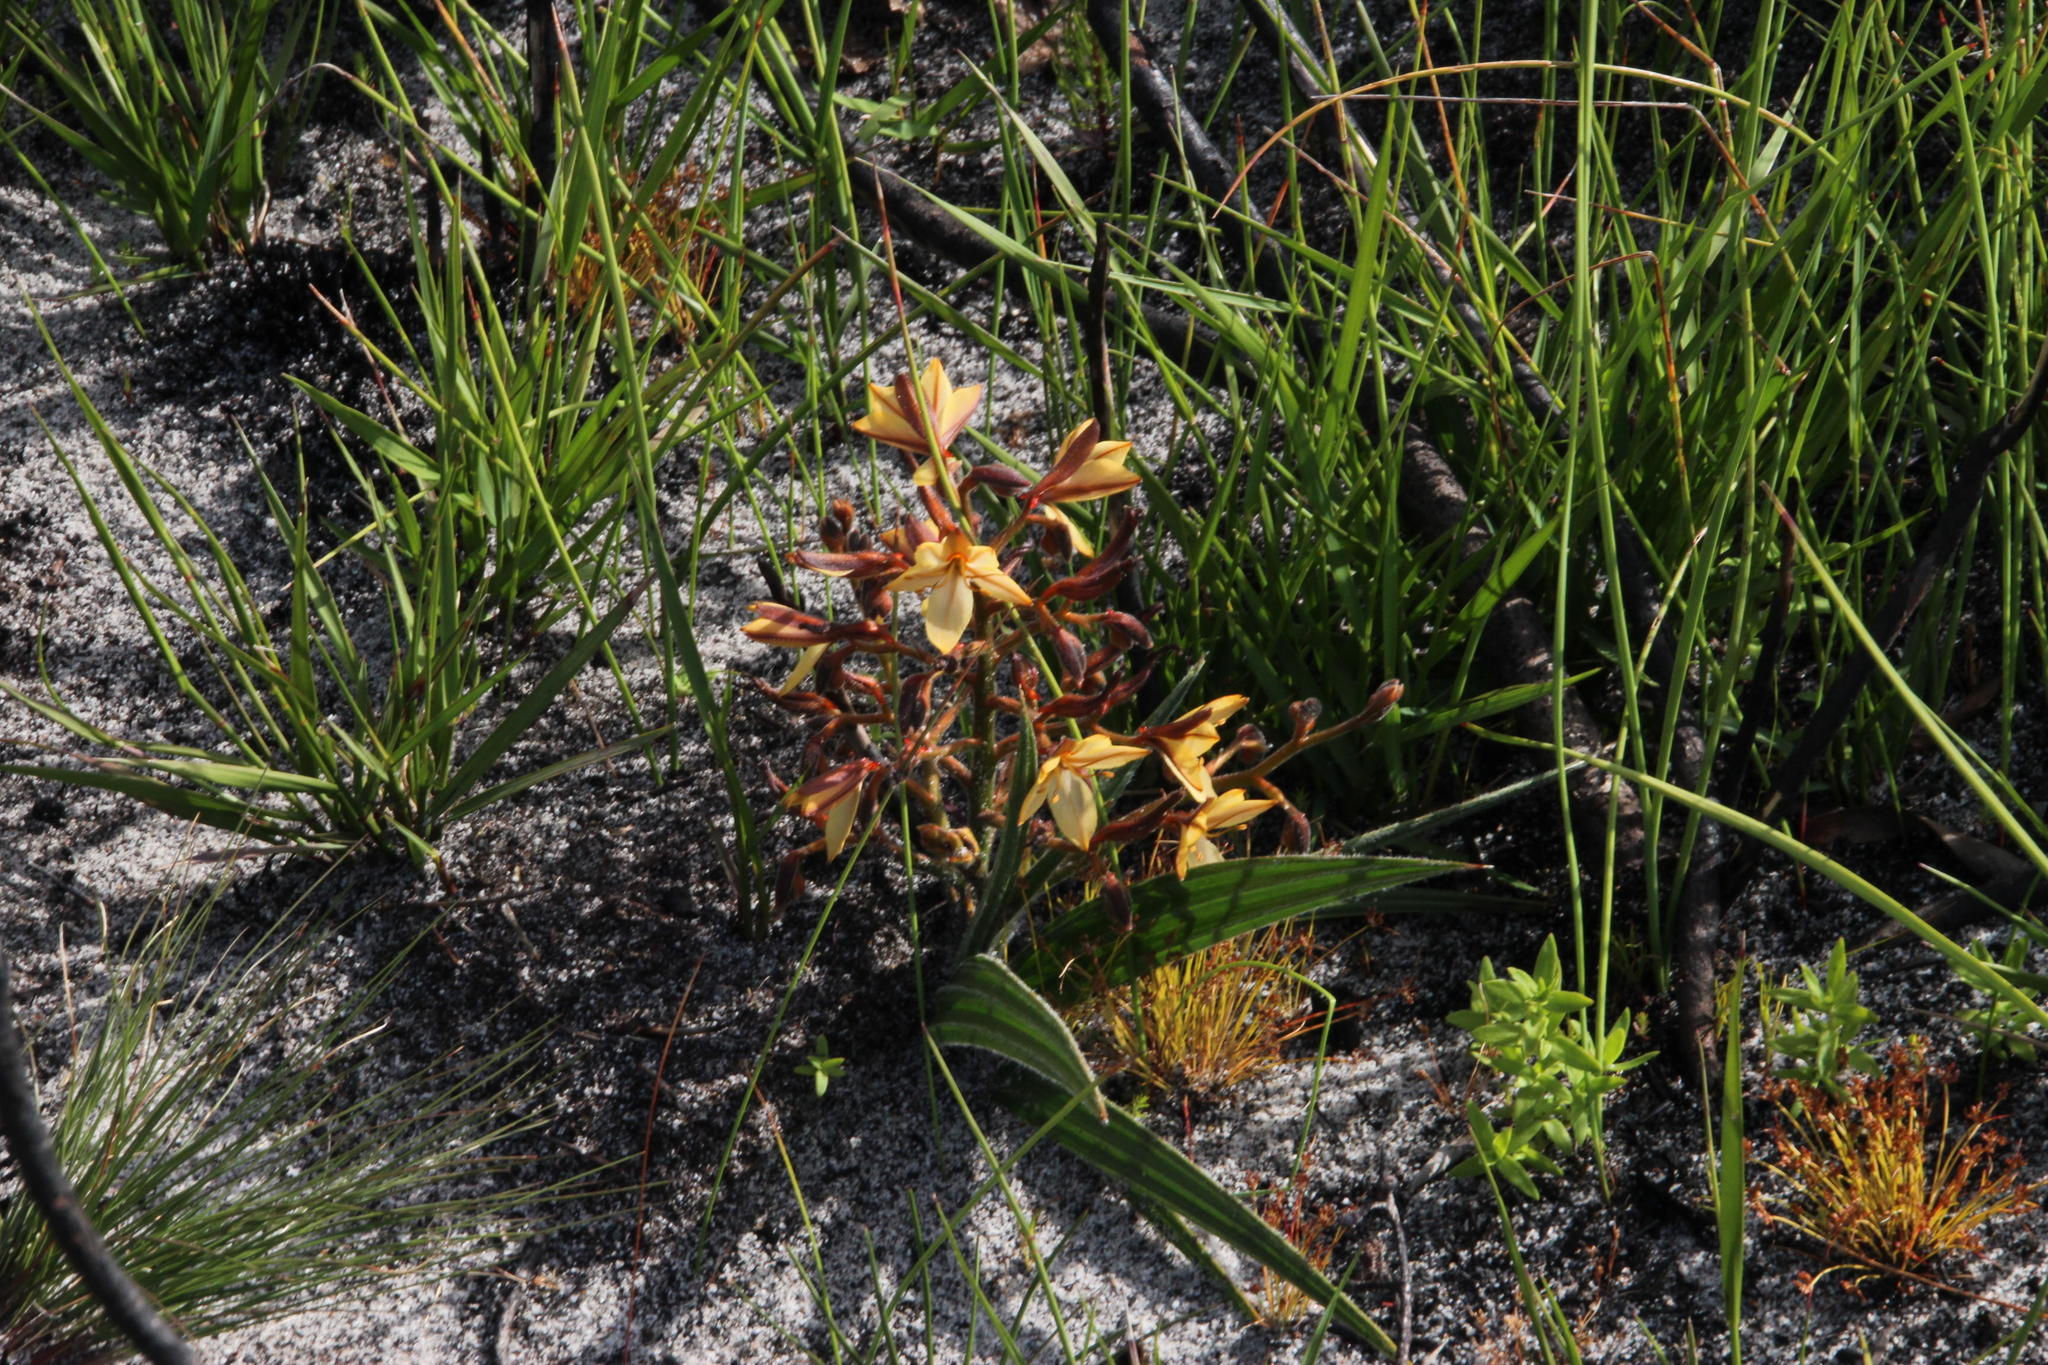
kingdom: Plantae
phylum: Tracheophyta
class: Liliopsida
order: Commelinales
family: Haemodoraceae
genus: Wachendorfia
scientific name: Wachendorfia paniculata
